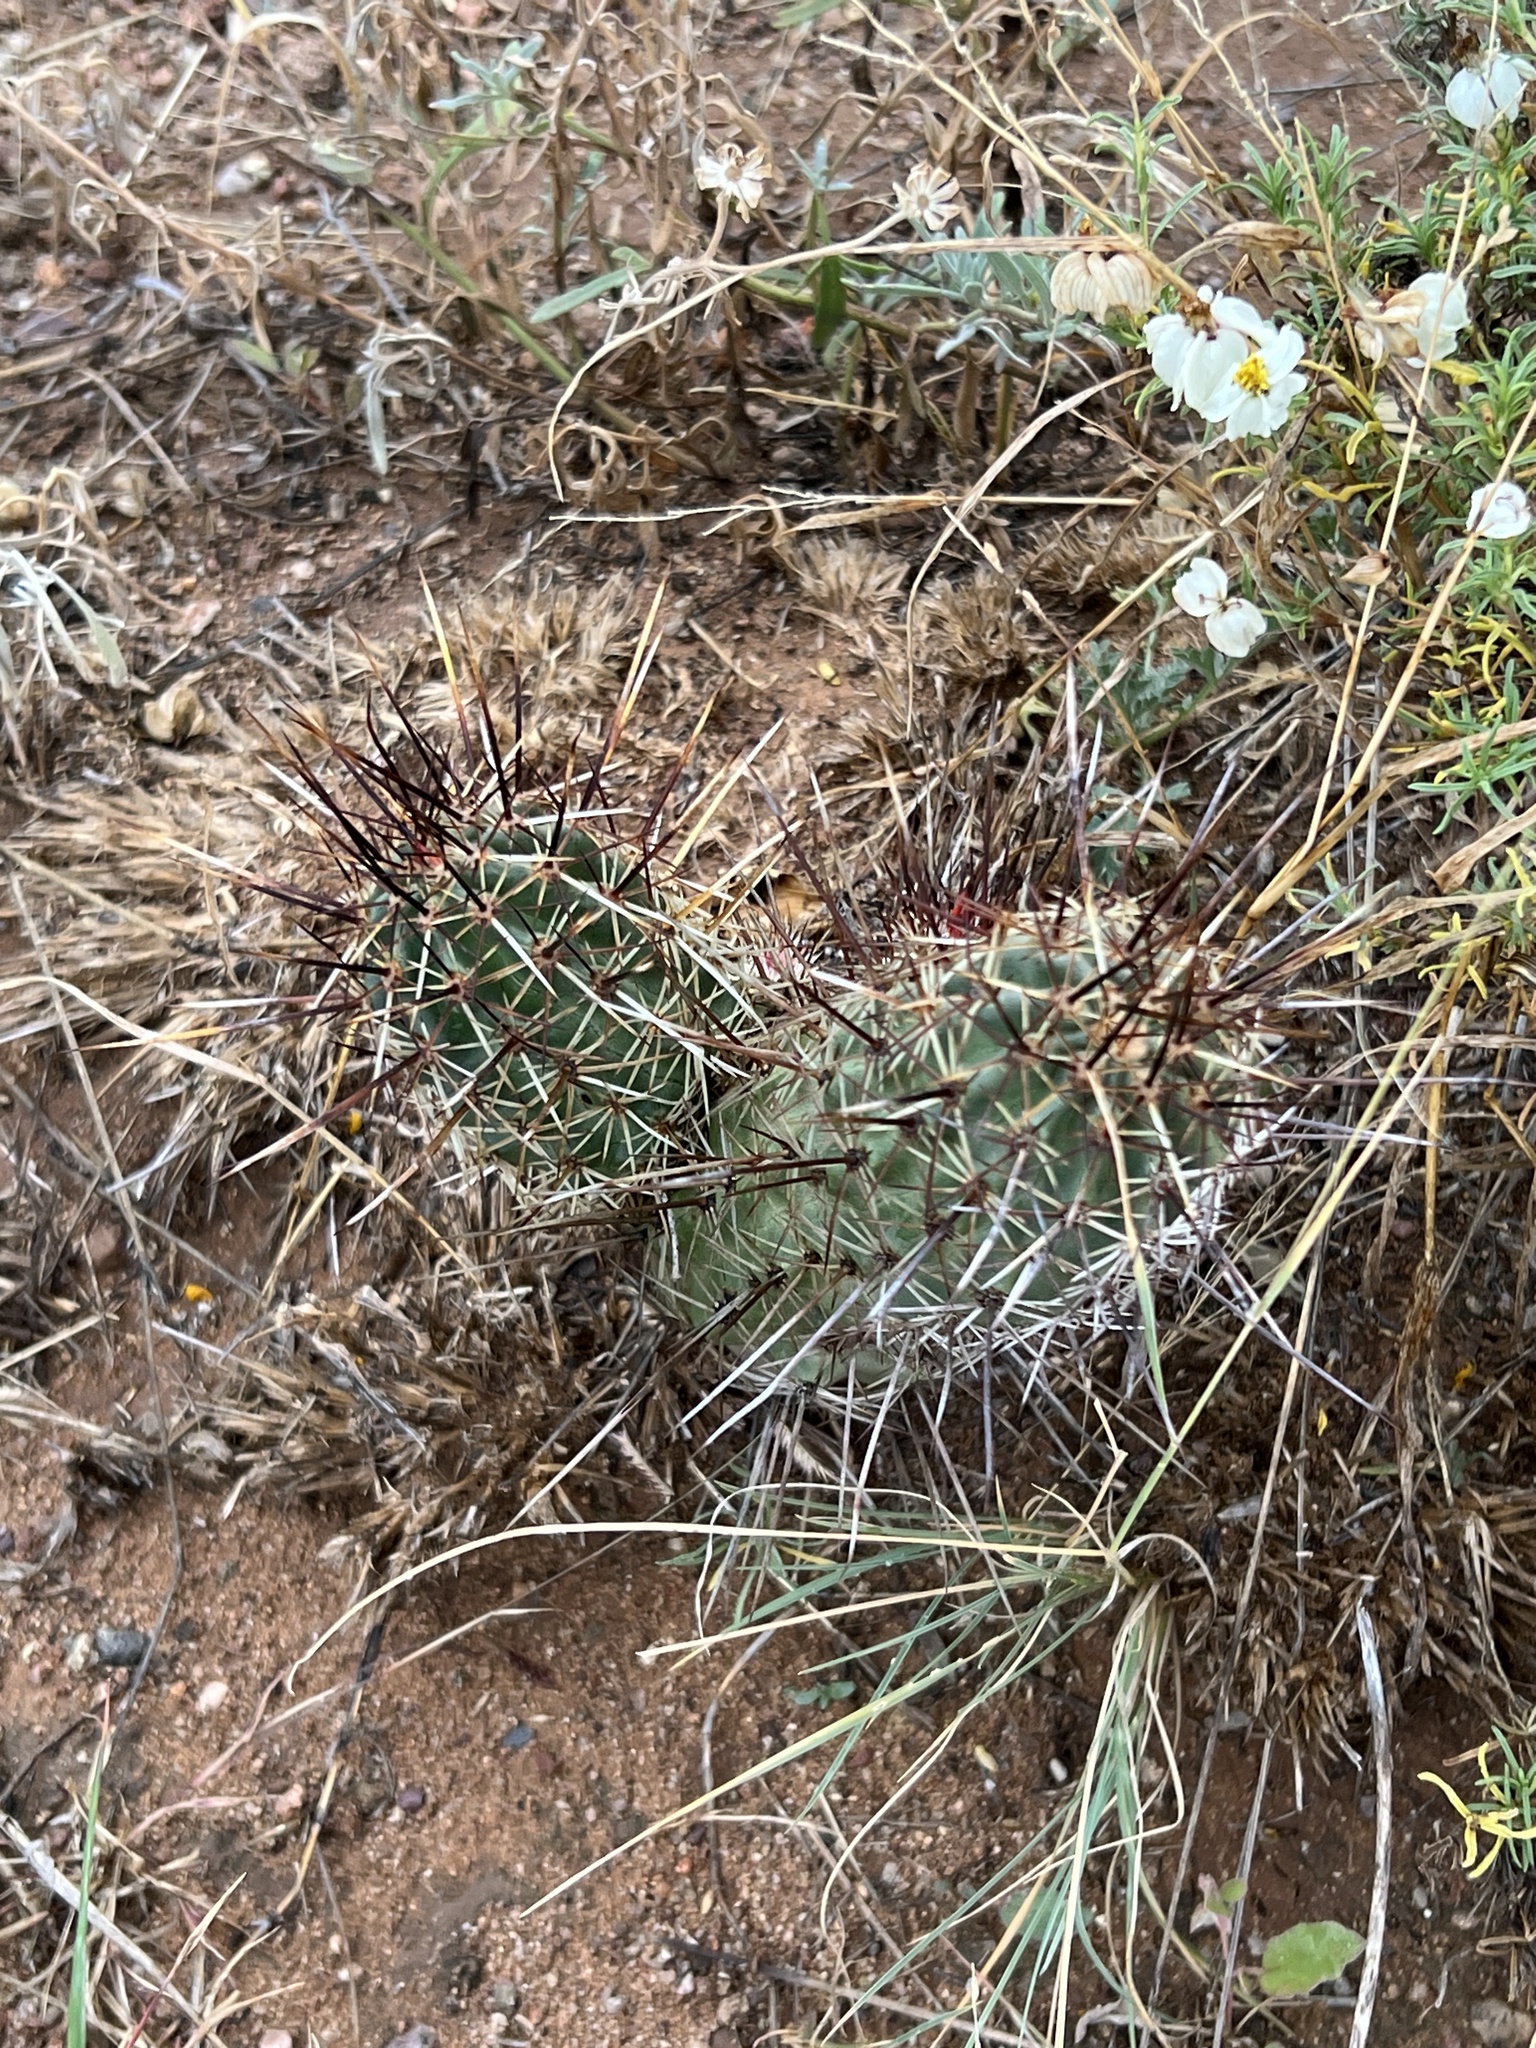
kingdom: Plantae
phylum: Tracheophyta
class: Magnoliopsida
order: Caryophyllales
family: Cactaceae
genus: Echinocereus
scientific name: Echinocereus fasciculatus
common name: Bundle hedgehog
